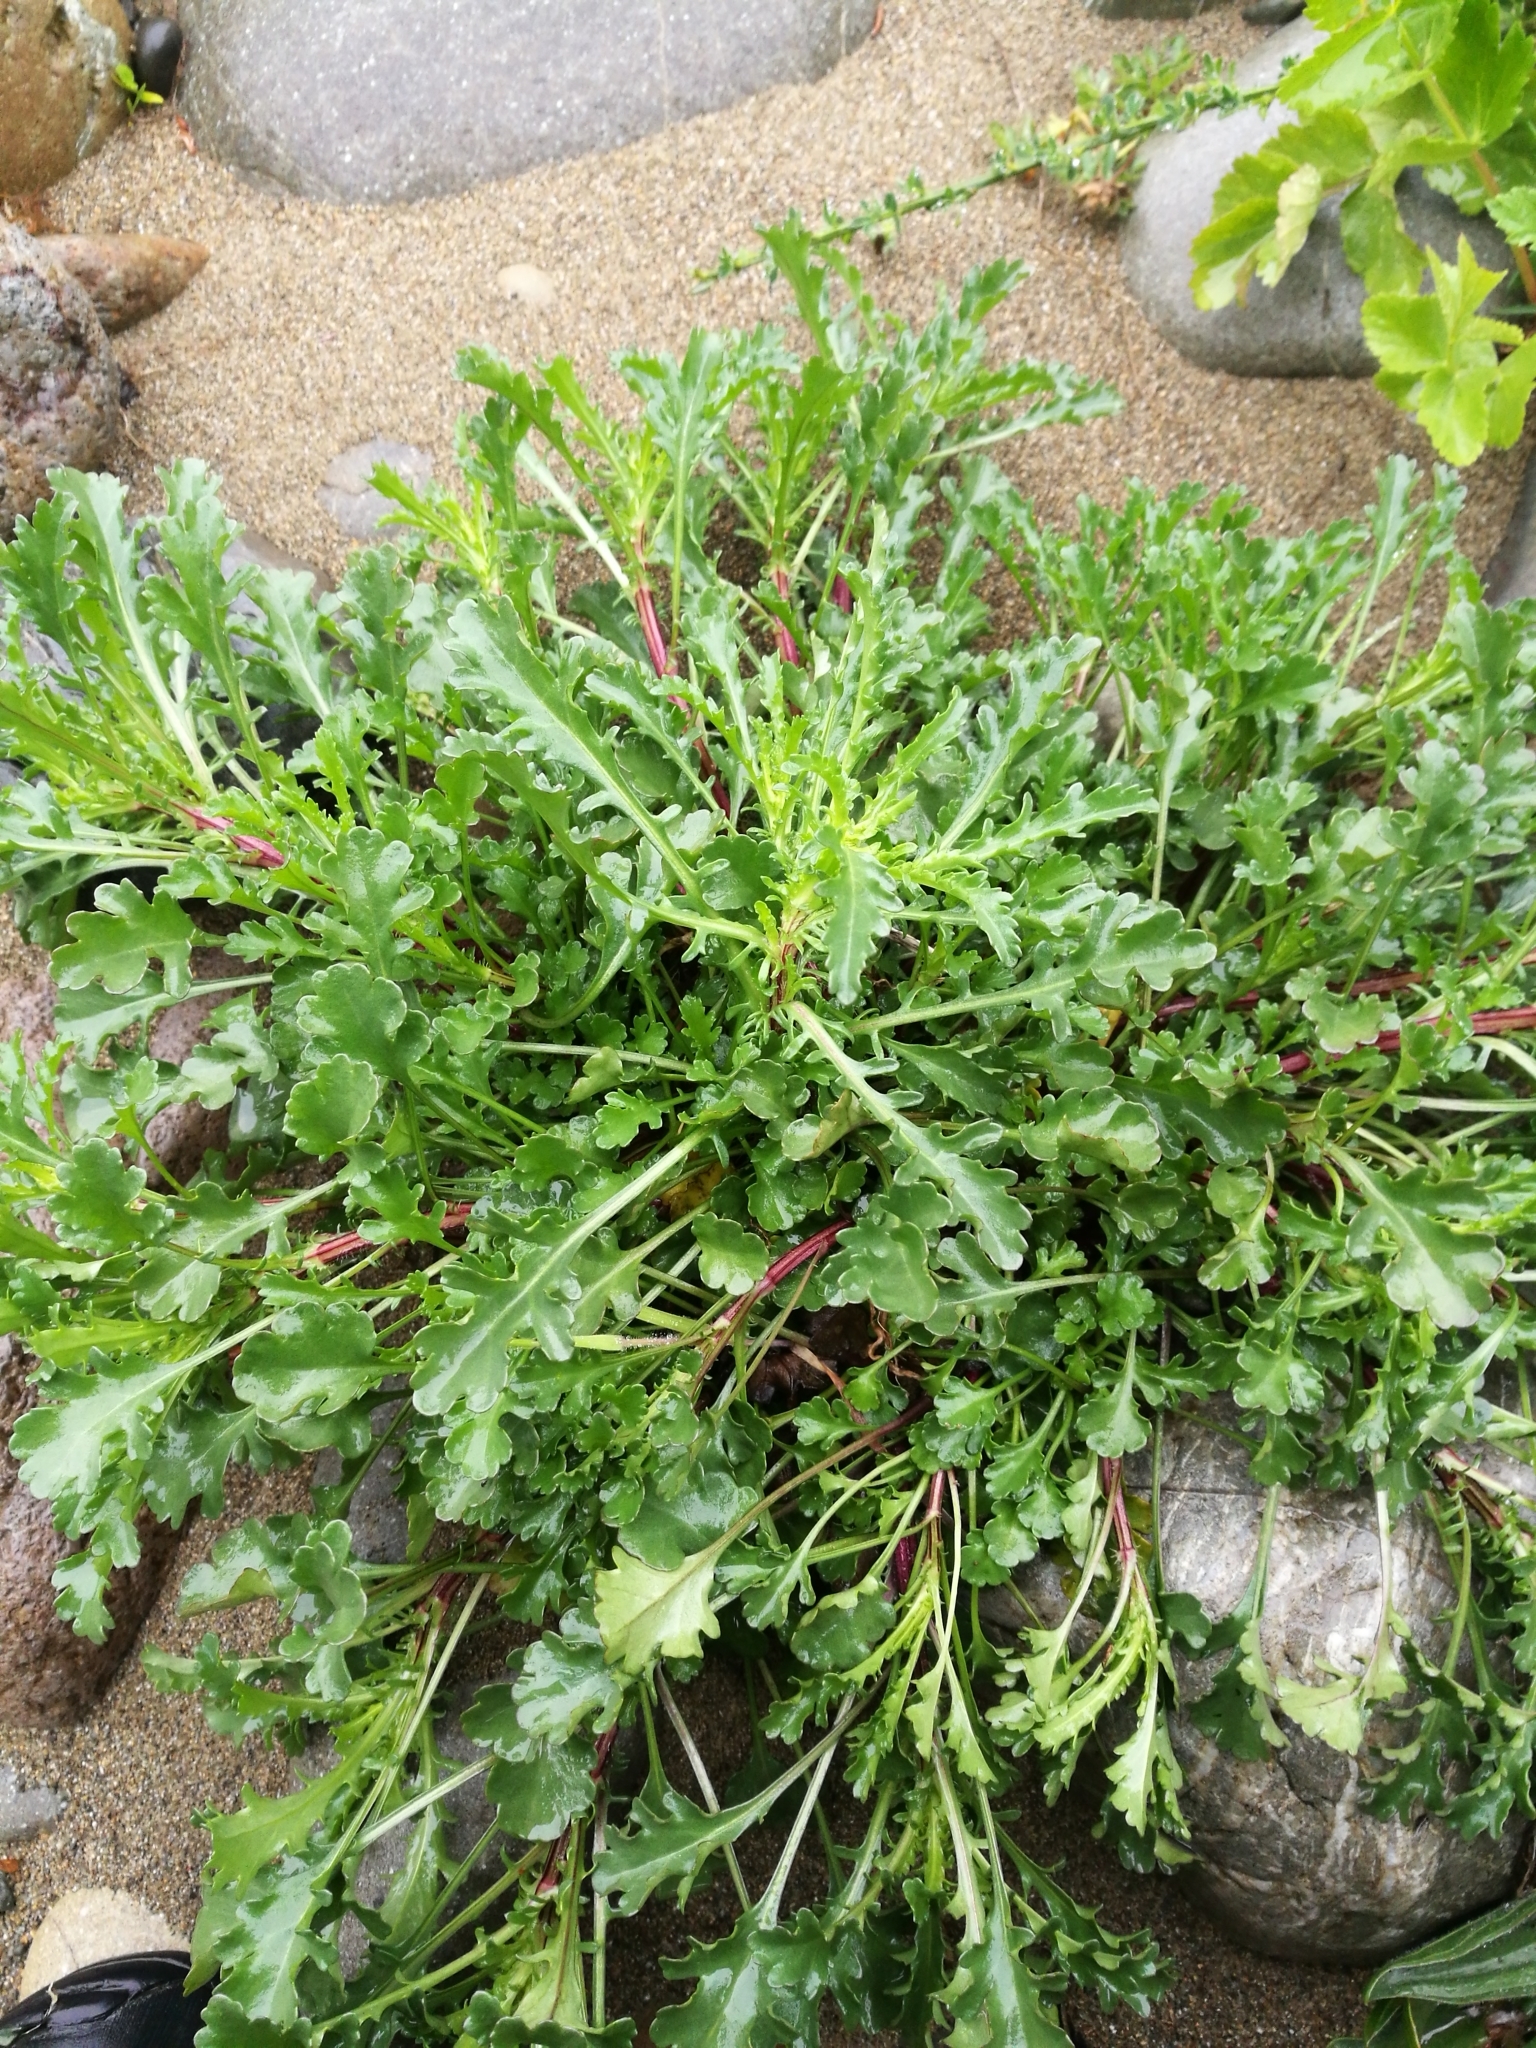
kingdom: Plantae
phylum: Tracheophyta
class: Magnoliopsida
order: Asterales
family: Asteraceae
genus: Leucanthemum
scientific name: Leucanthemum vulgare
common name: Oxeye daisy
